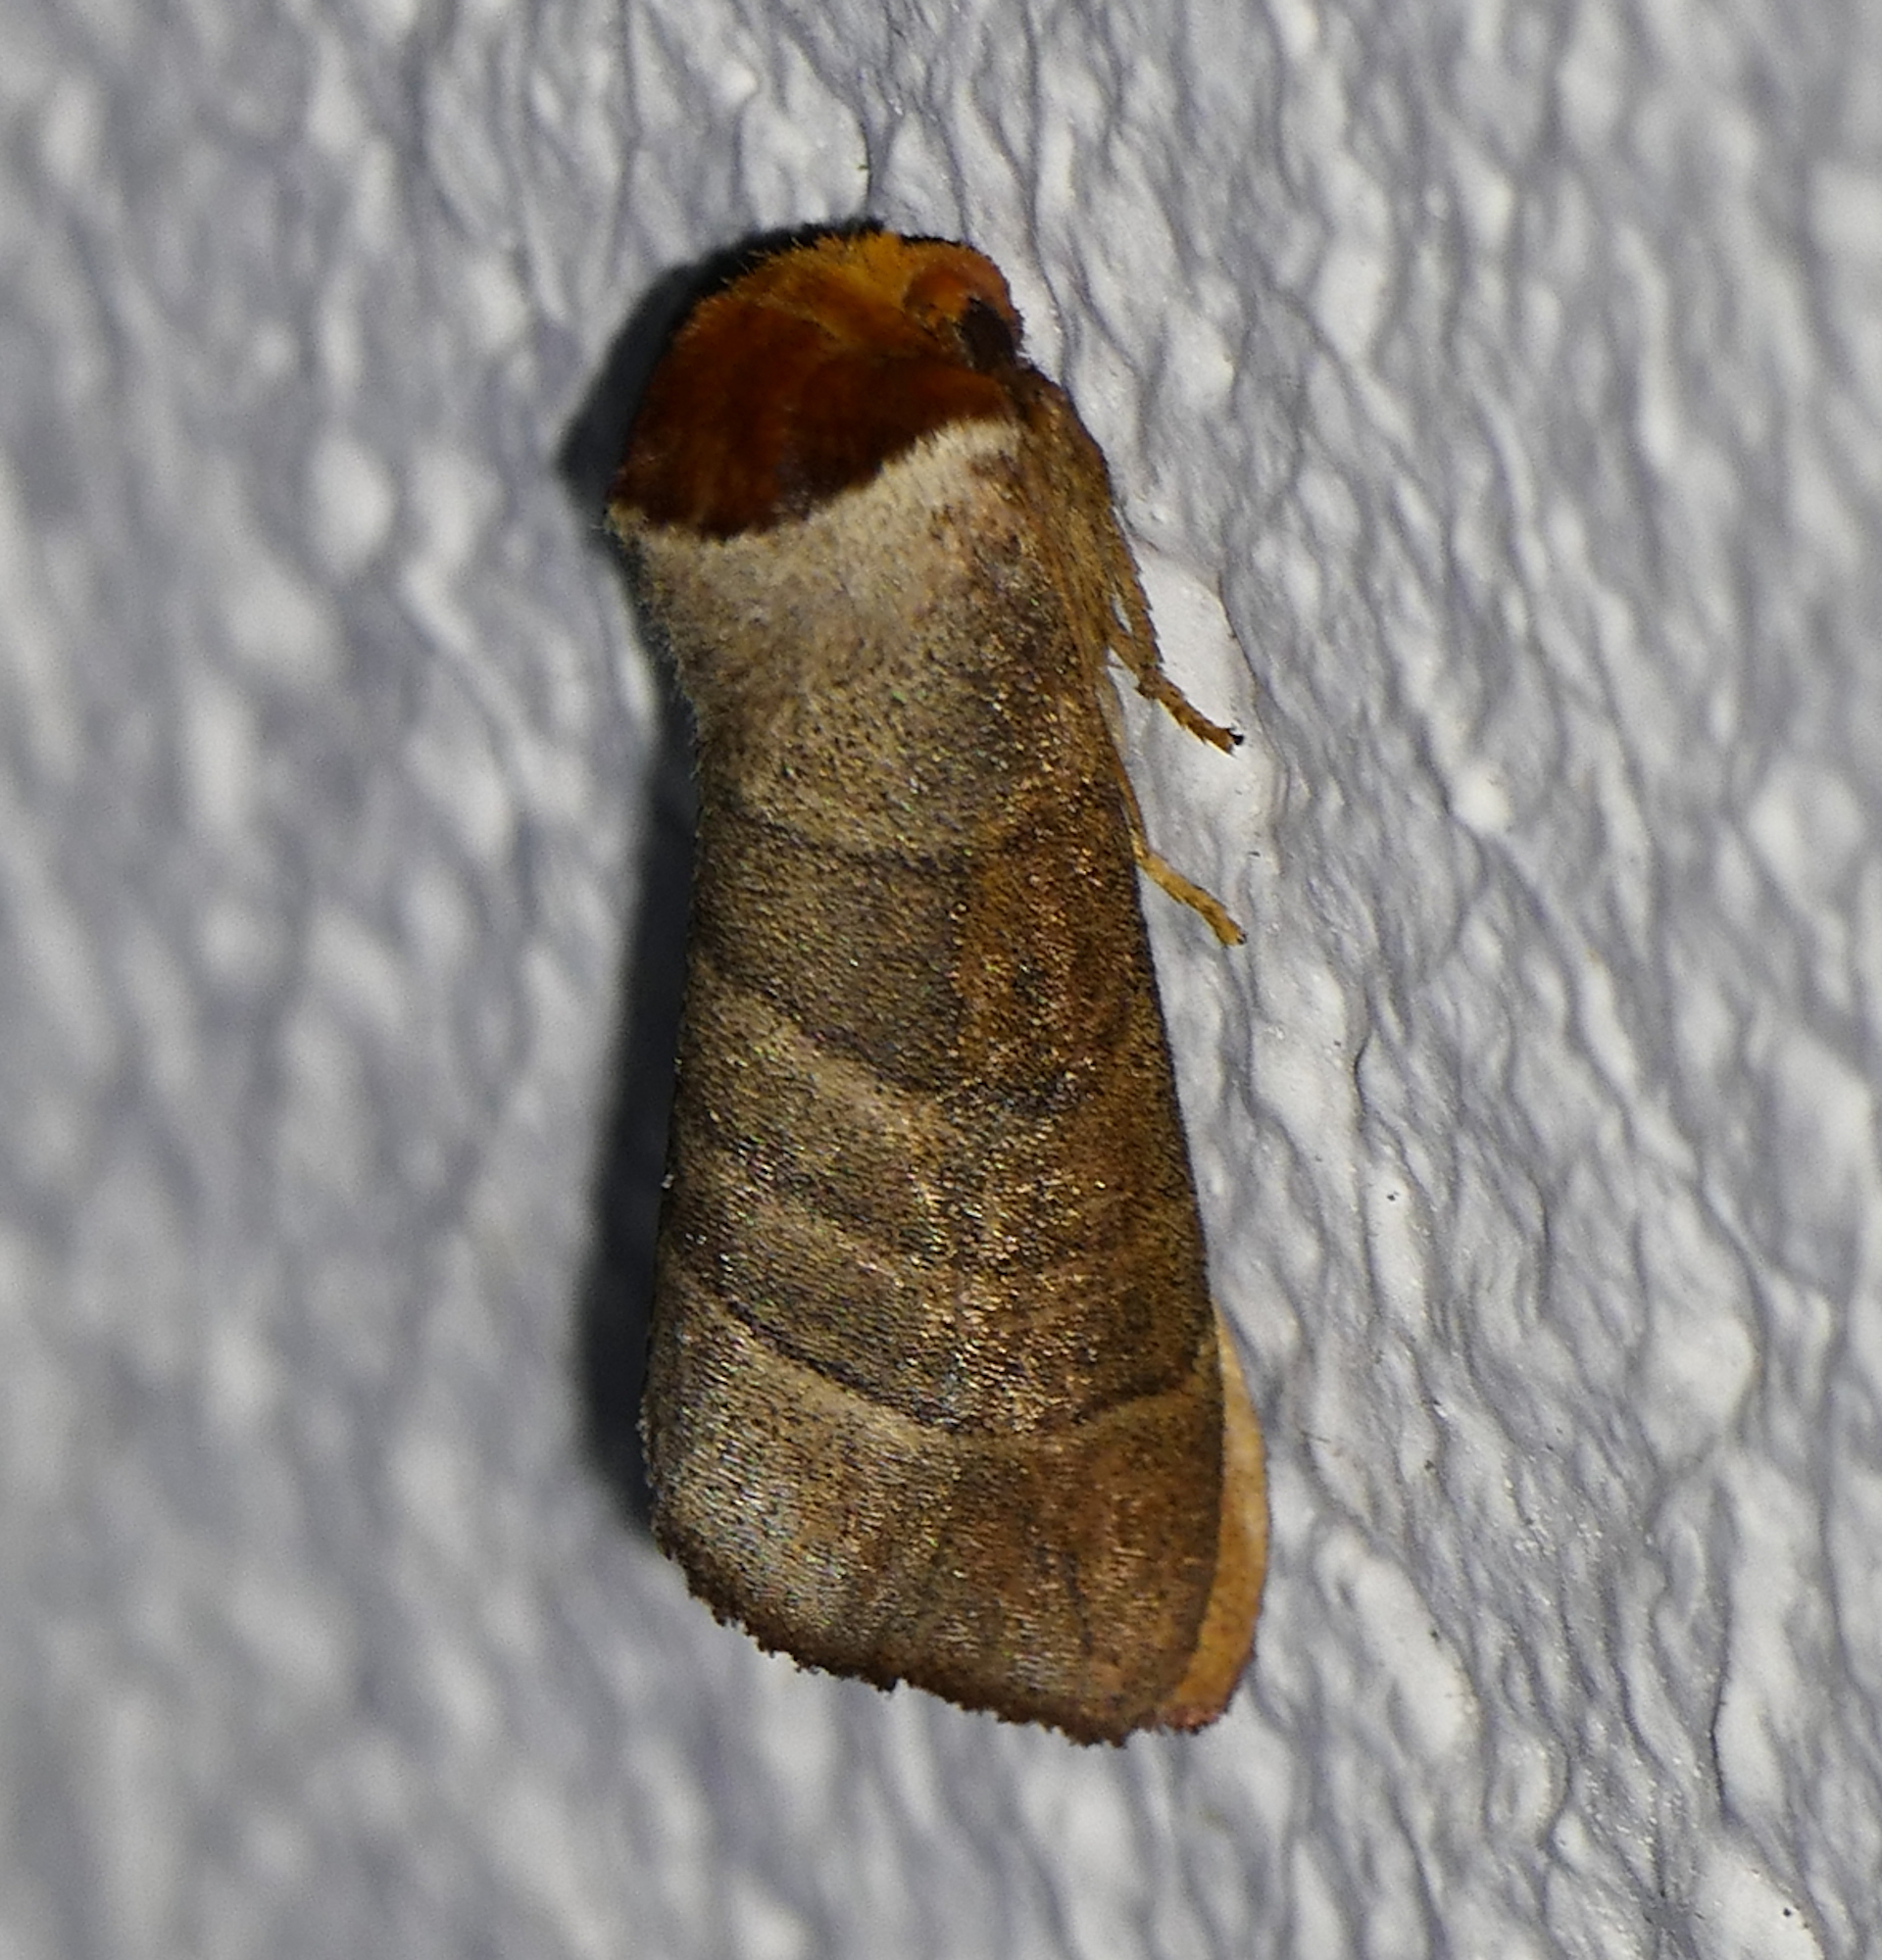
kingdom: Animalia
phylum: Arthropoda
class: Insecta
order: Lepidoptera
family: Notodontidae
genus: Datana
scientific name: Datana integerrima
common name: Walnut caterpillar
